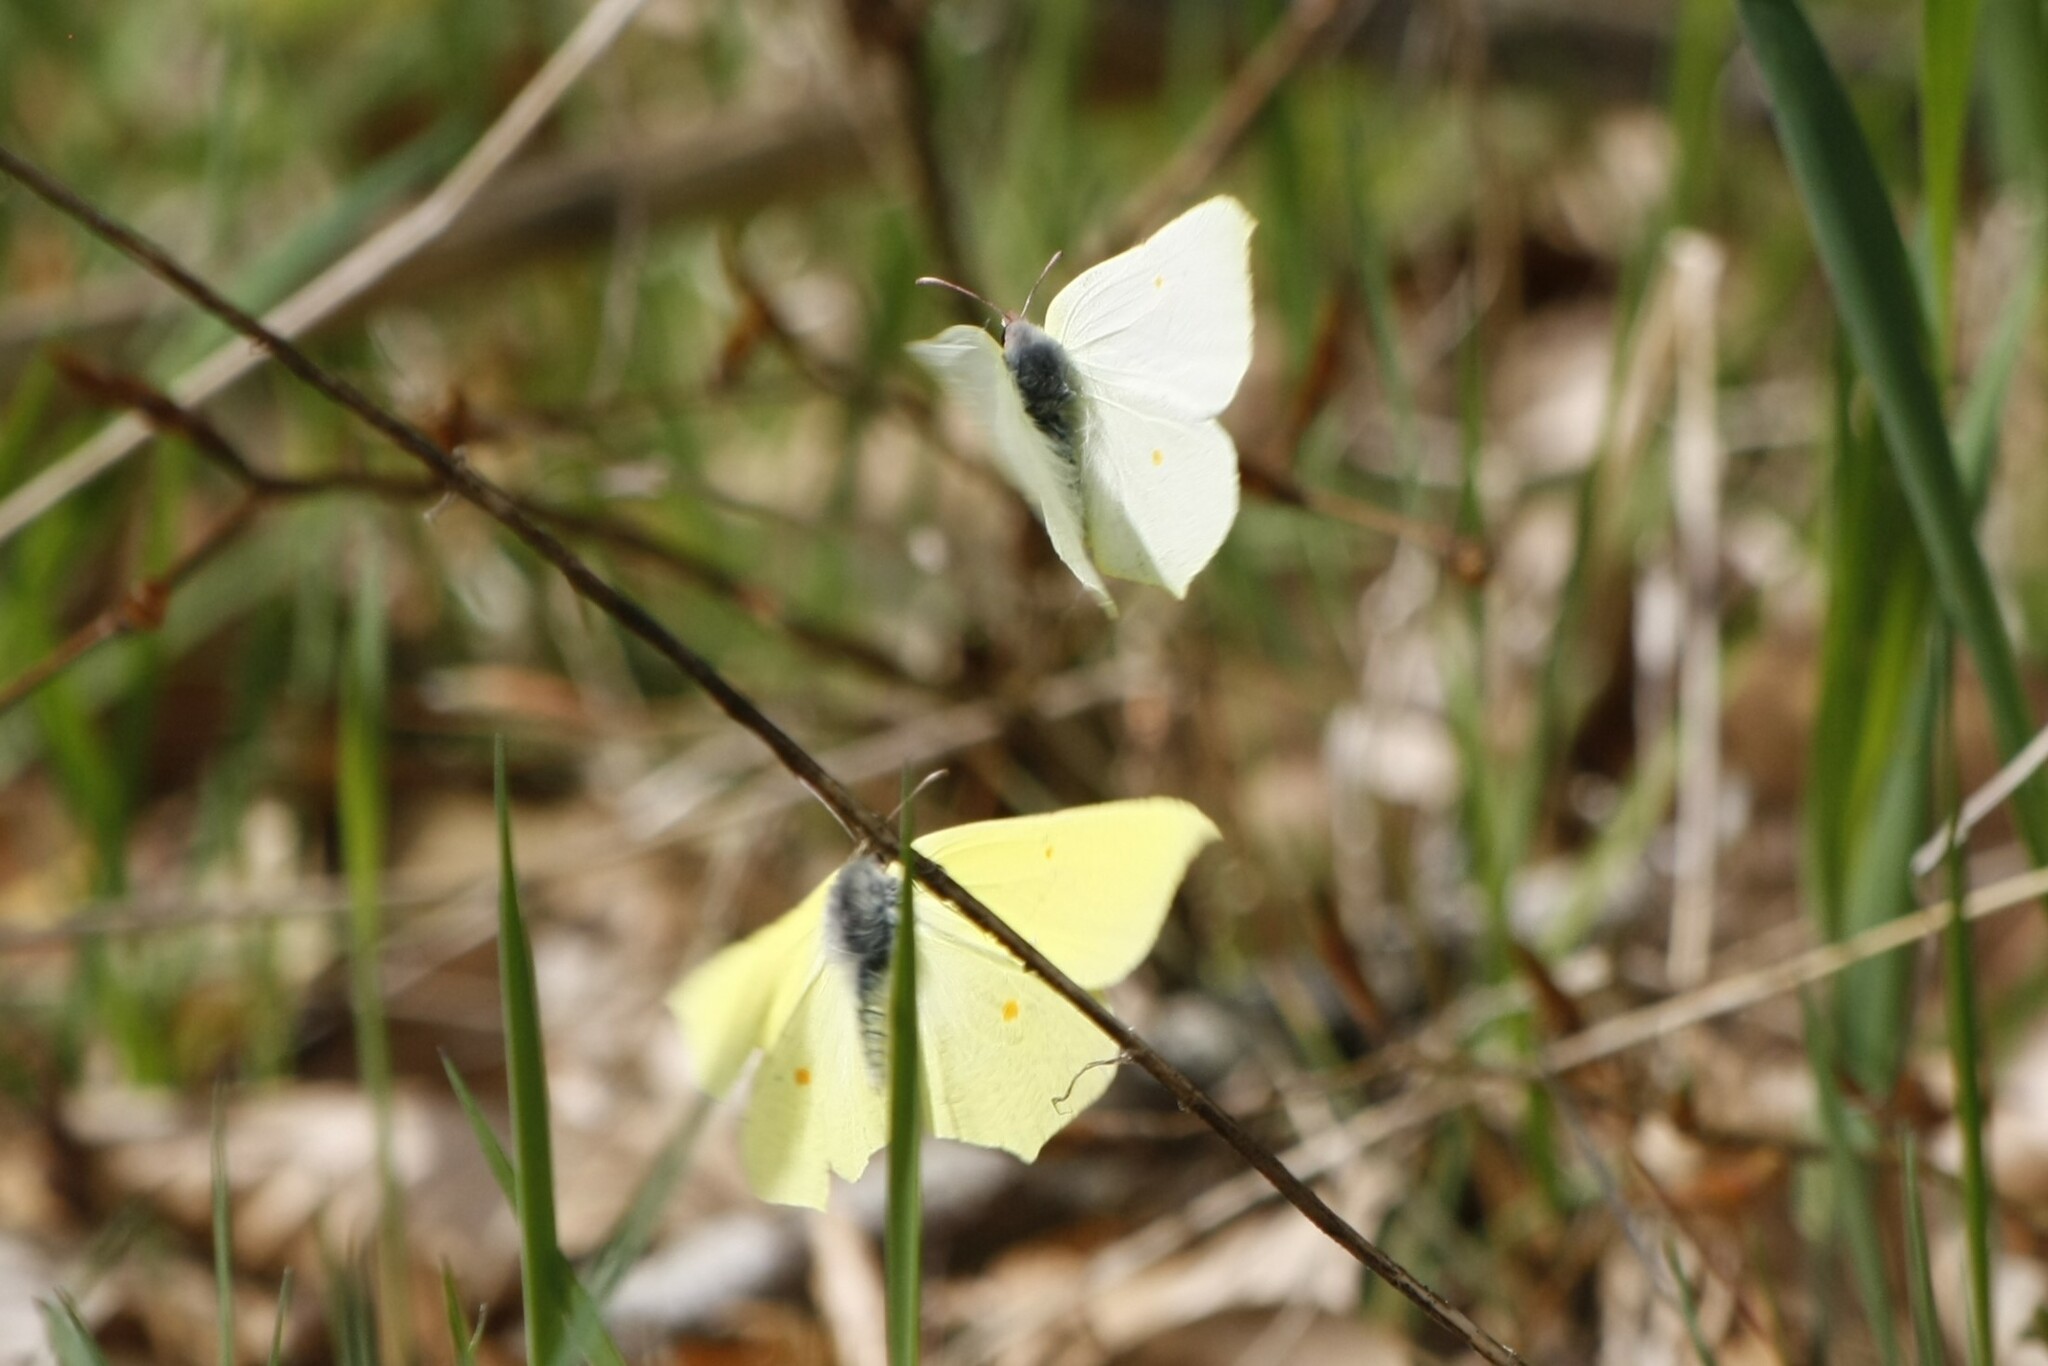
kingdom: Animalia
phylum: Arthropoda
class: Insecta
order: Lepidoptera
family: Pieridae
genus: Gonepteryx
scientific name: Gonepteryx rhamni
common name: Brimstone
